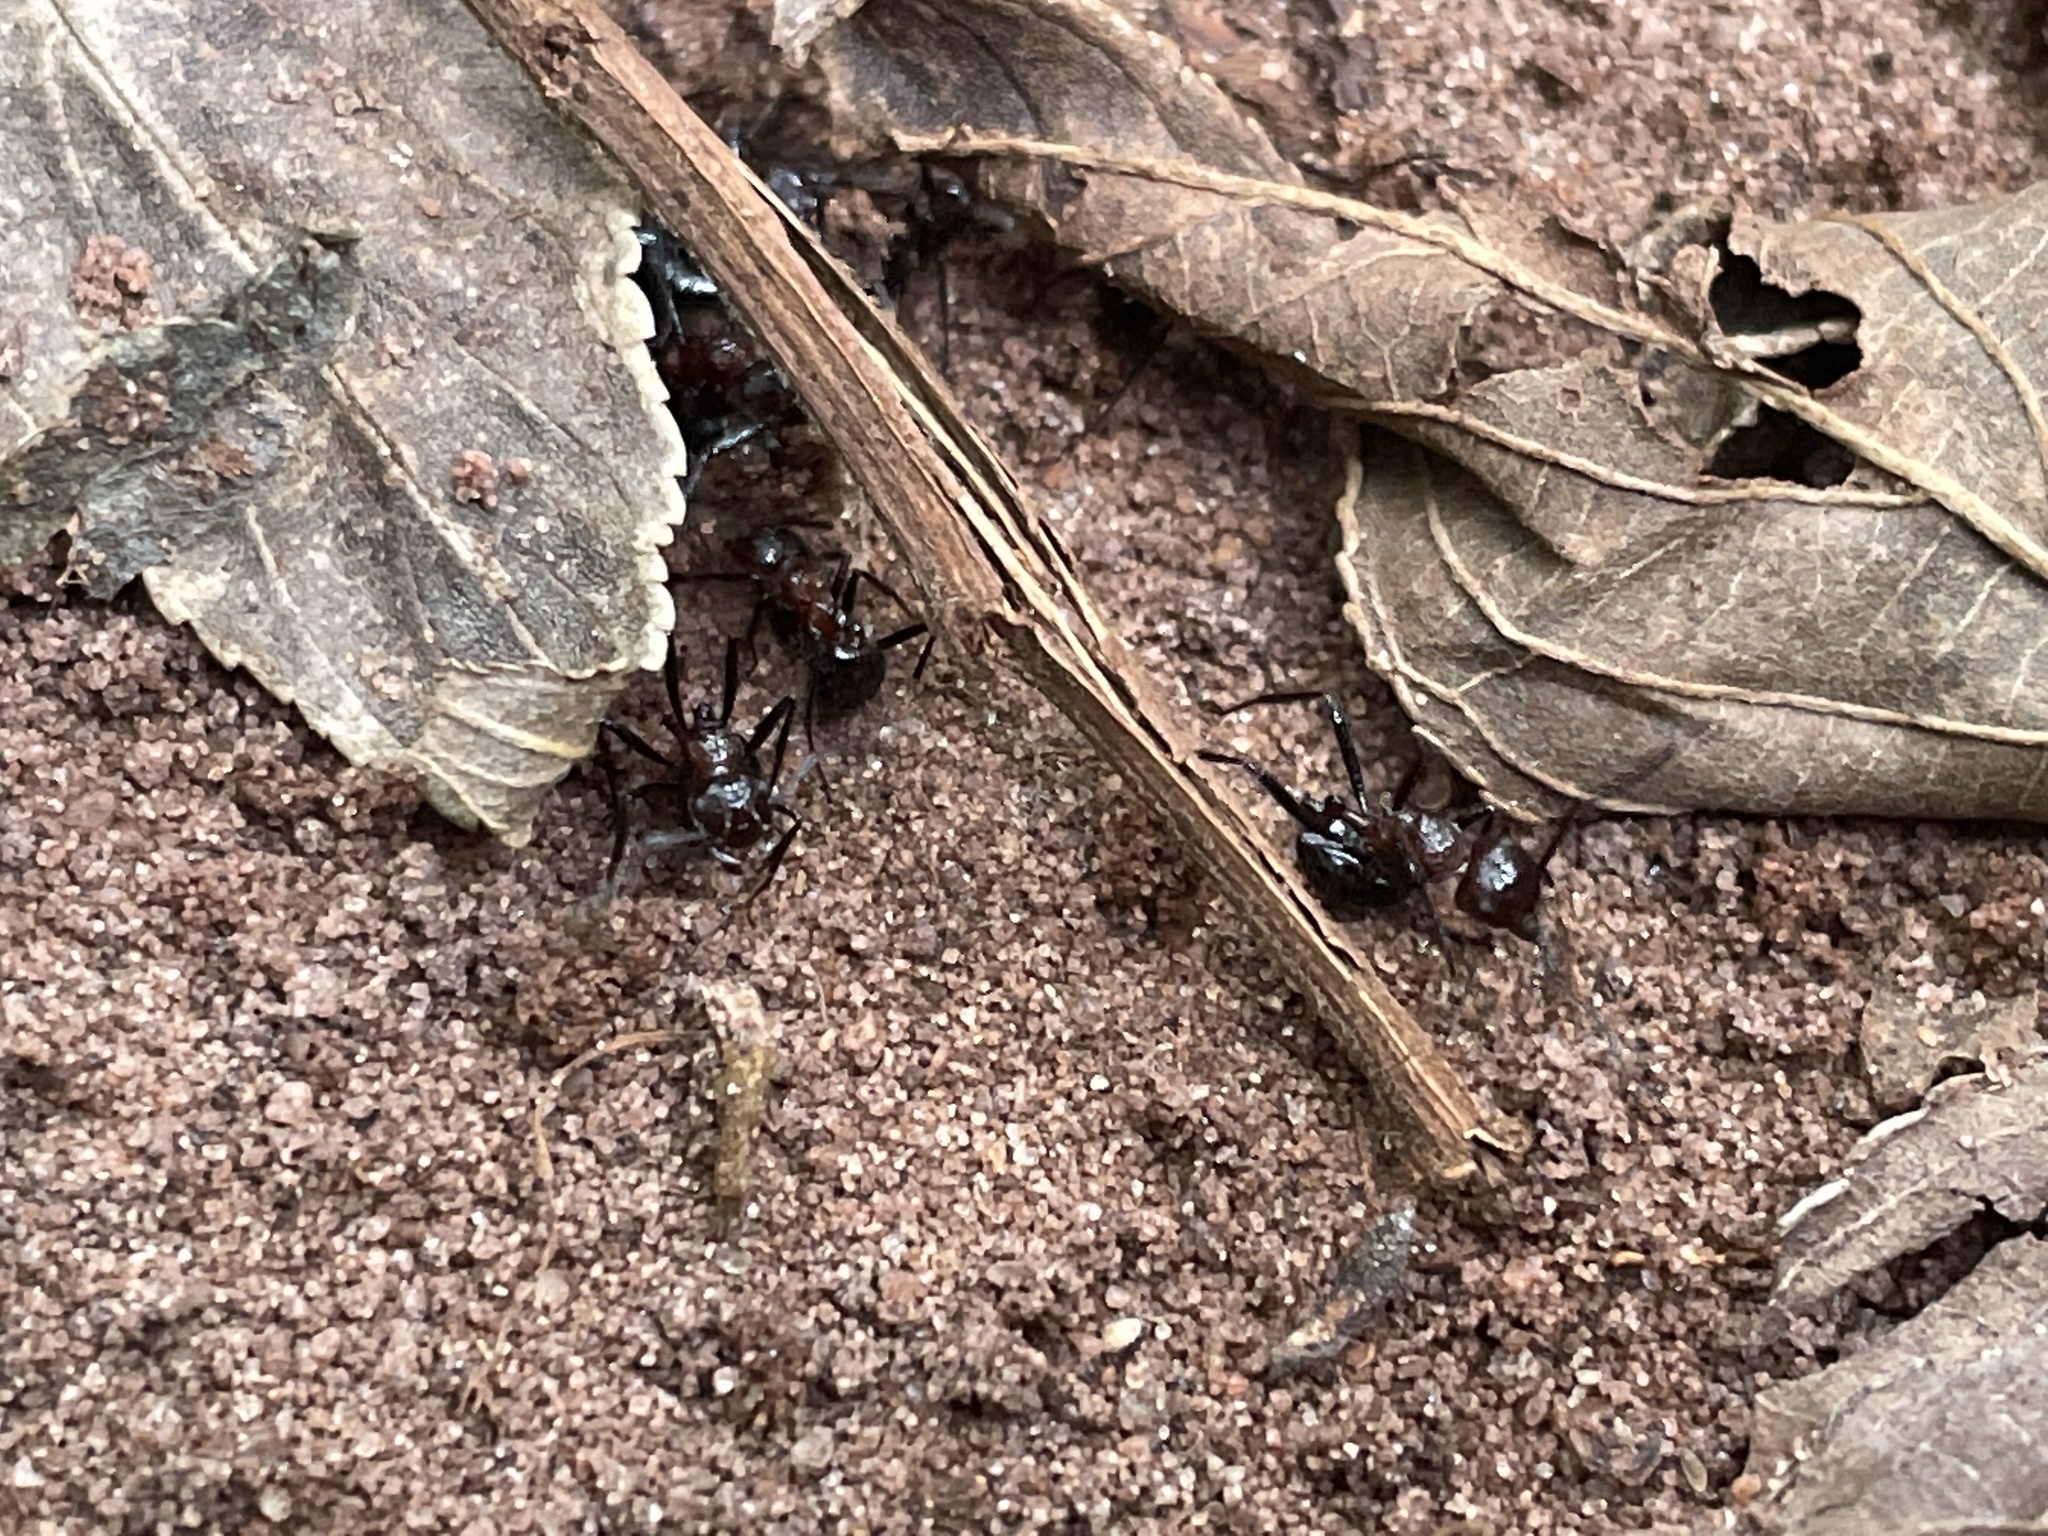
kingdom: Animalia
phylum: Arthropoda
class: Insecta
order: Hymenoptera
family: Formicidae
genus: Myrmicaria
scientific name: Myrmicaria natalensis
